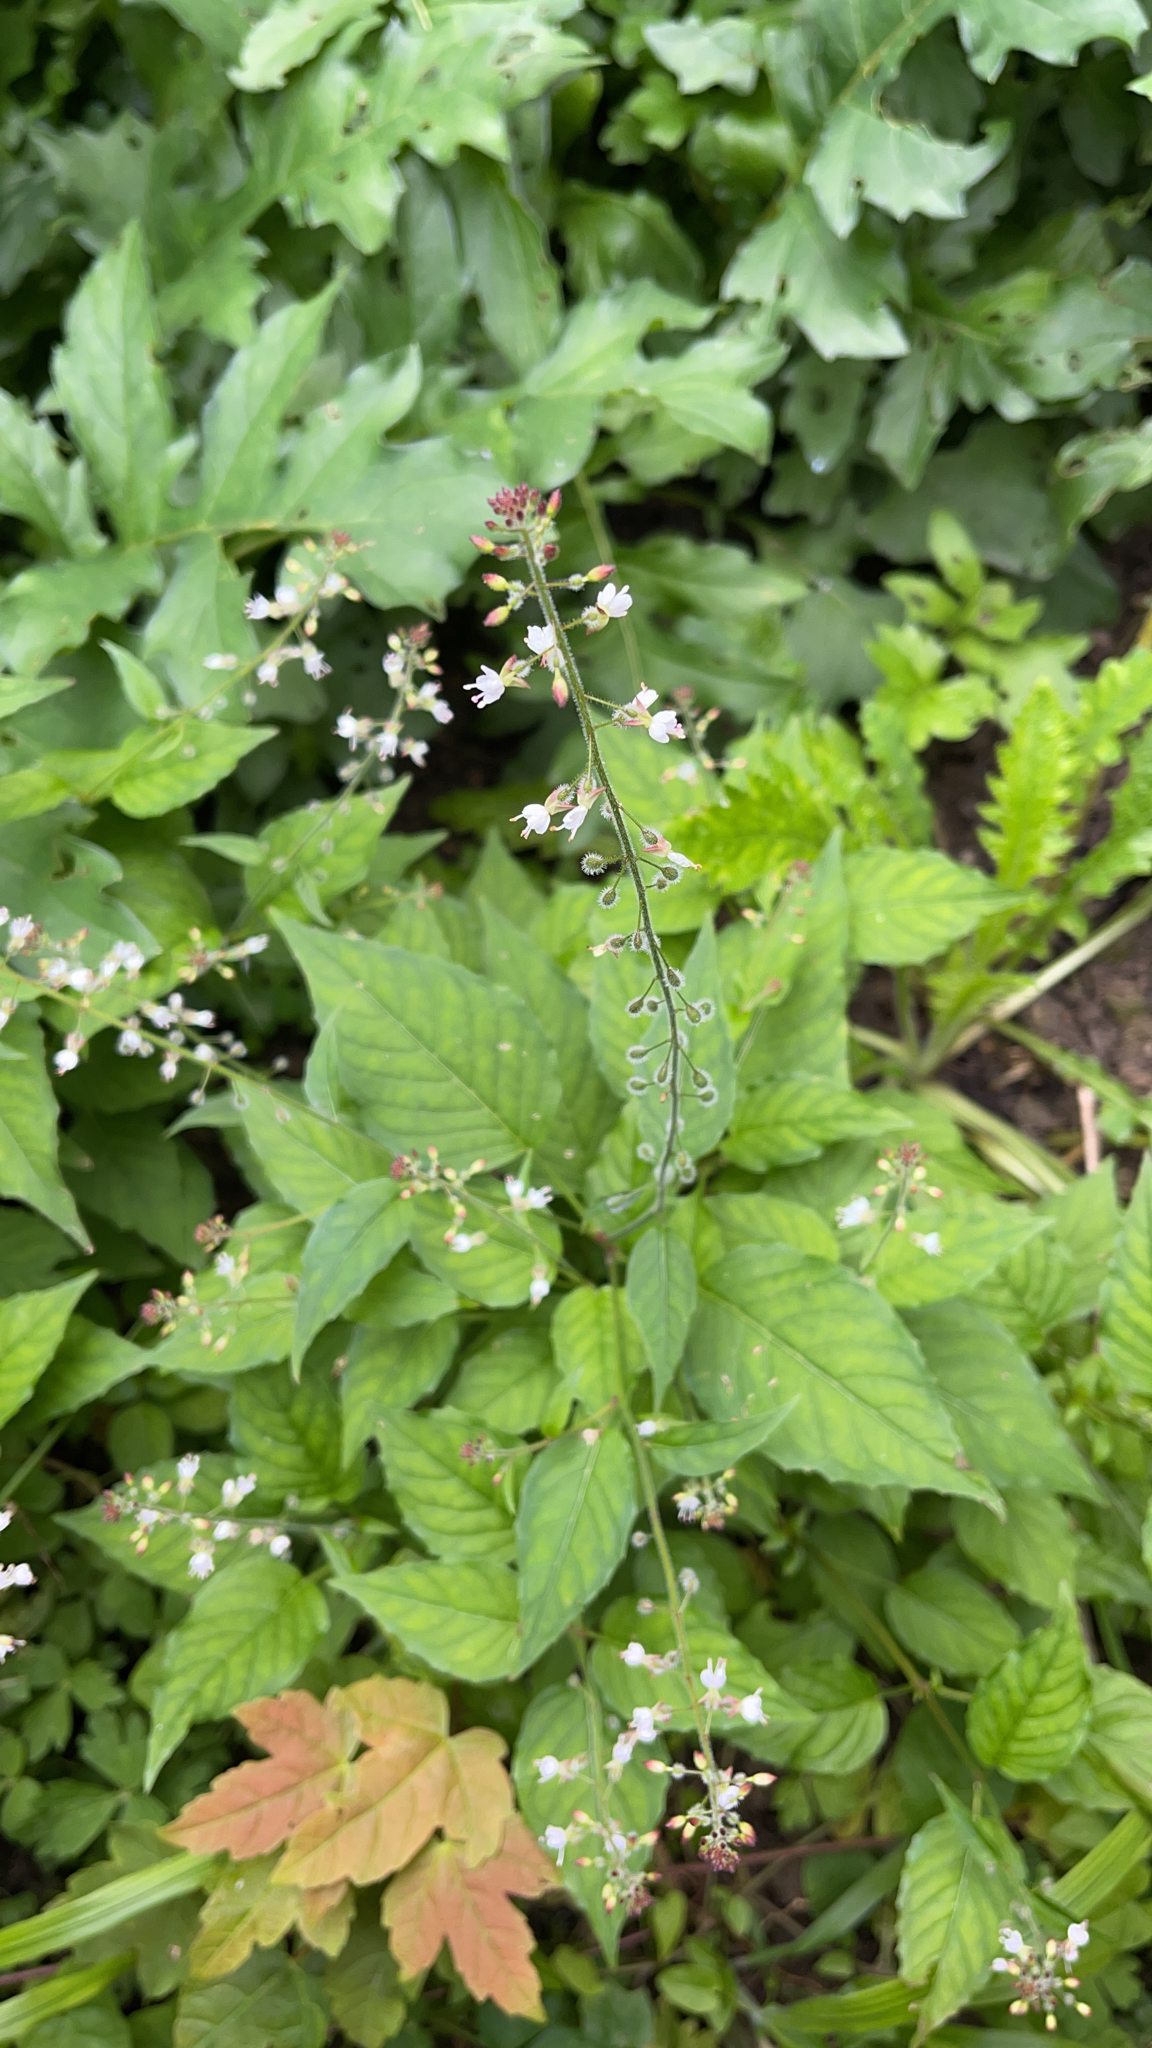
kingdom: Plantae
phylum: Tracheophyta
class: Magnoliopsida
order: Myrtales
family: Onagraceae
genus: Circaea
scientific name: Circaea lutetiana
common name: Enchanter's-nightshade
